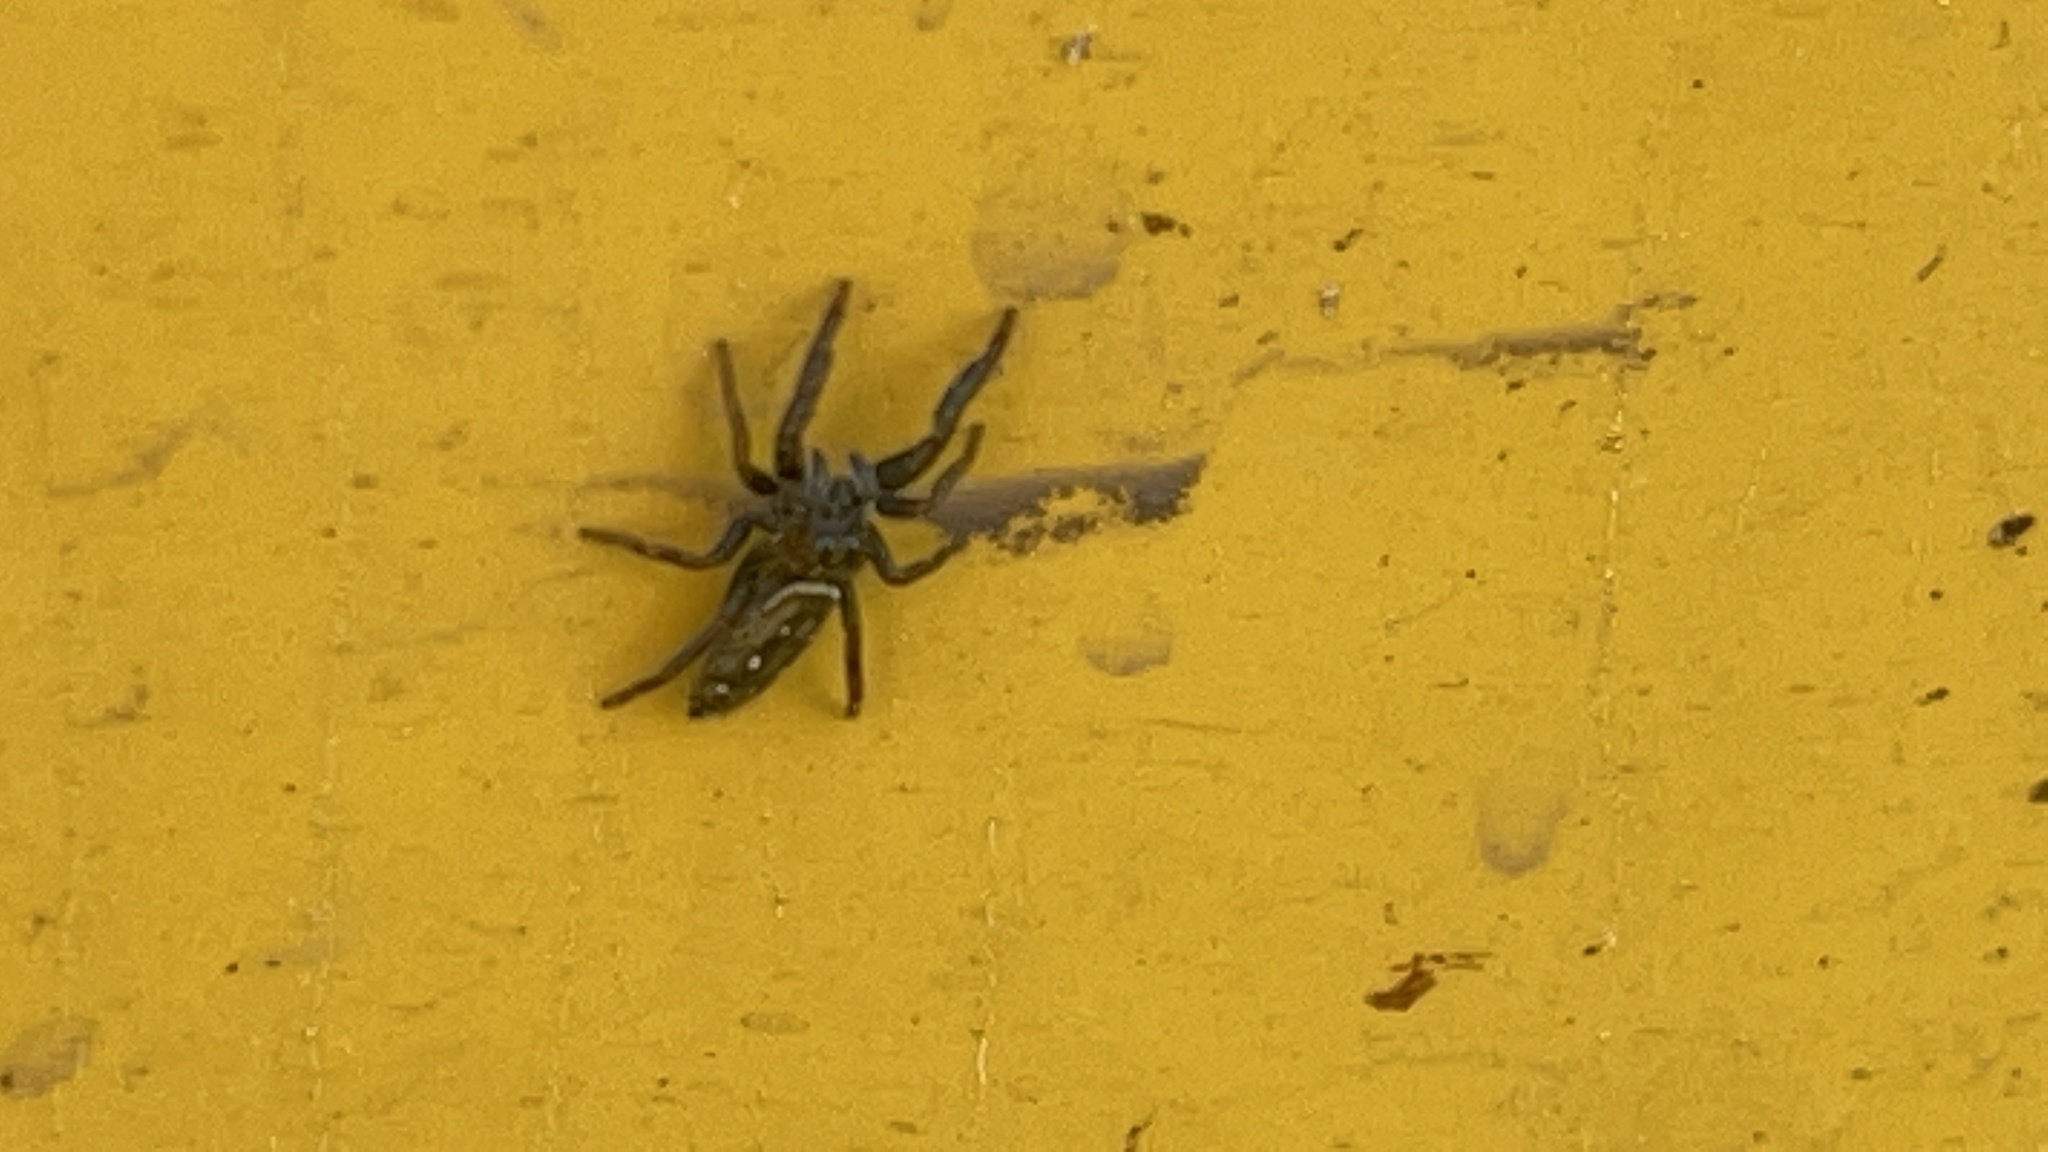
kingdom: Animalia
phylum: Arthropoda
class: Arachnida
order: Araneae
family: Salticidae
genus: Marpissa
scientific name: Marpissa bina
